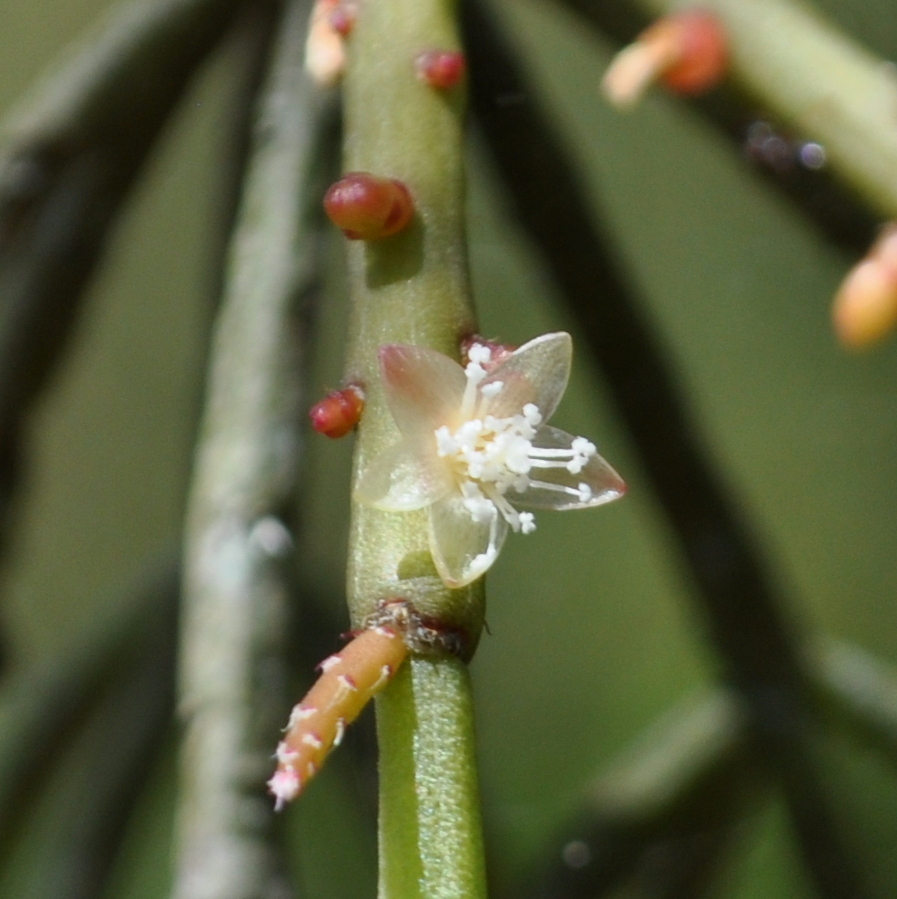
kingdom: Plantae
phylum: Tracheophyta
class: Magnoliopsida
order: Caryophyllales
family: Cactaceae
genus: Rhipsalis
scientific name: Rhipsalis teres
